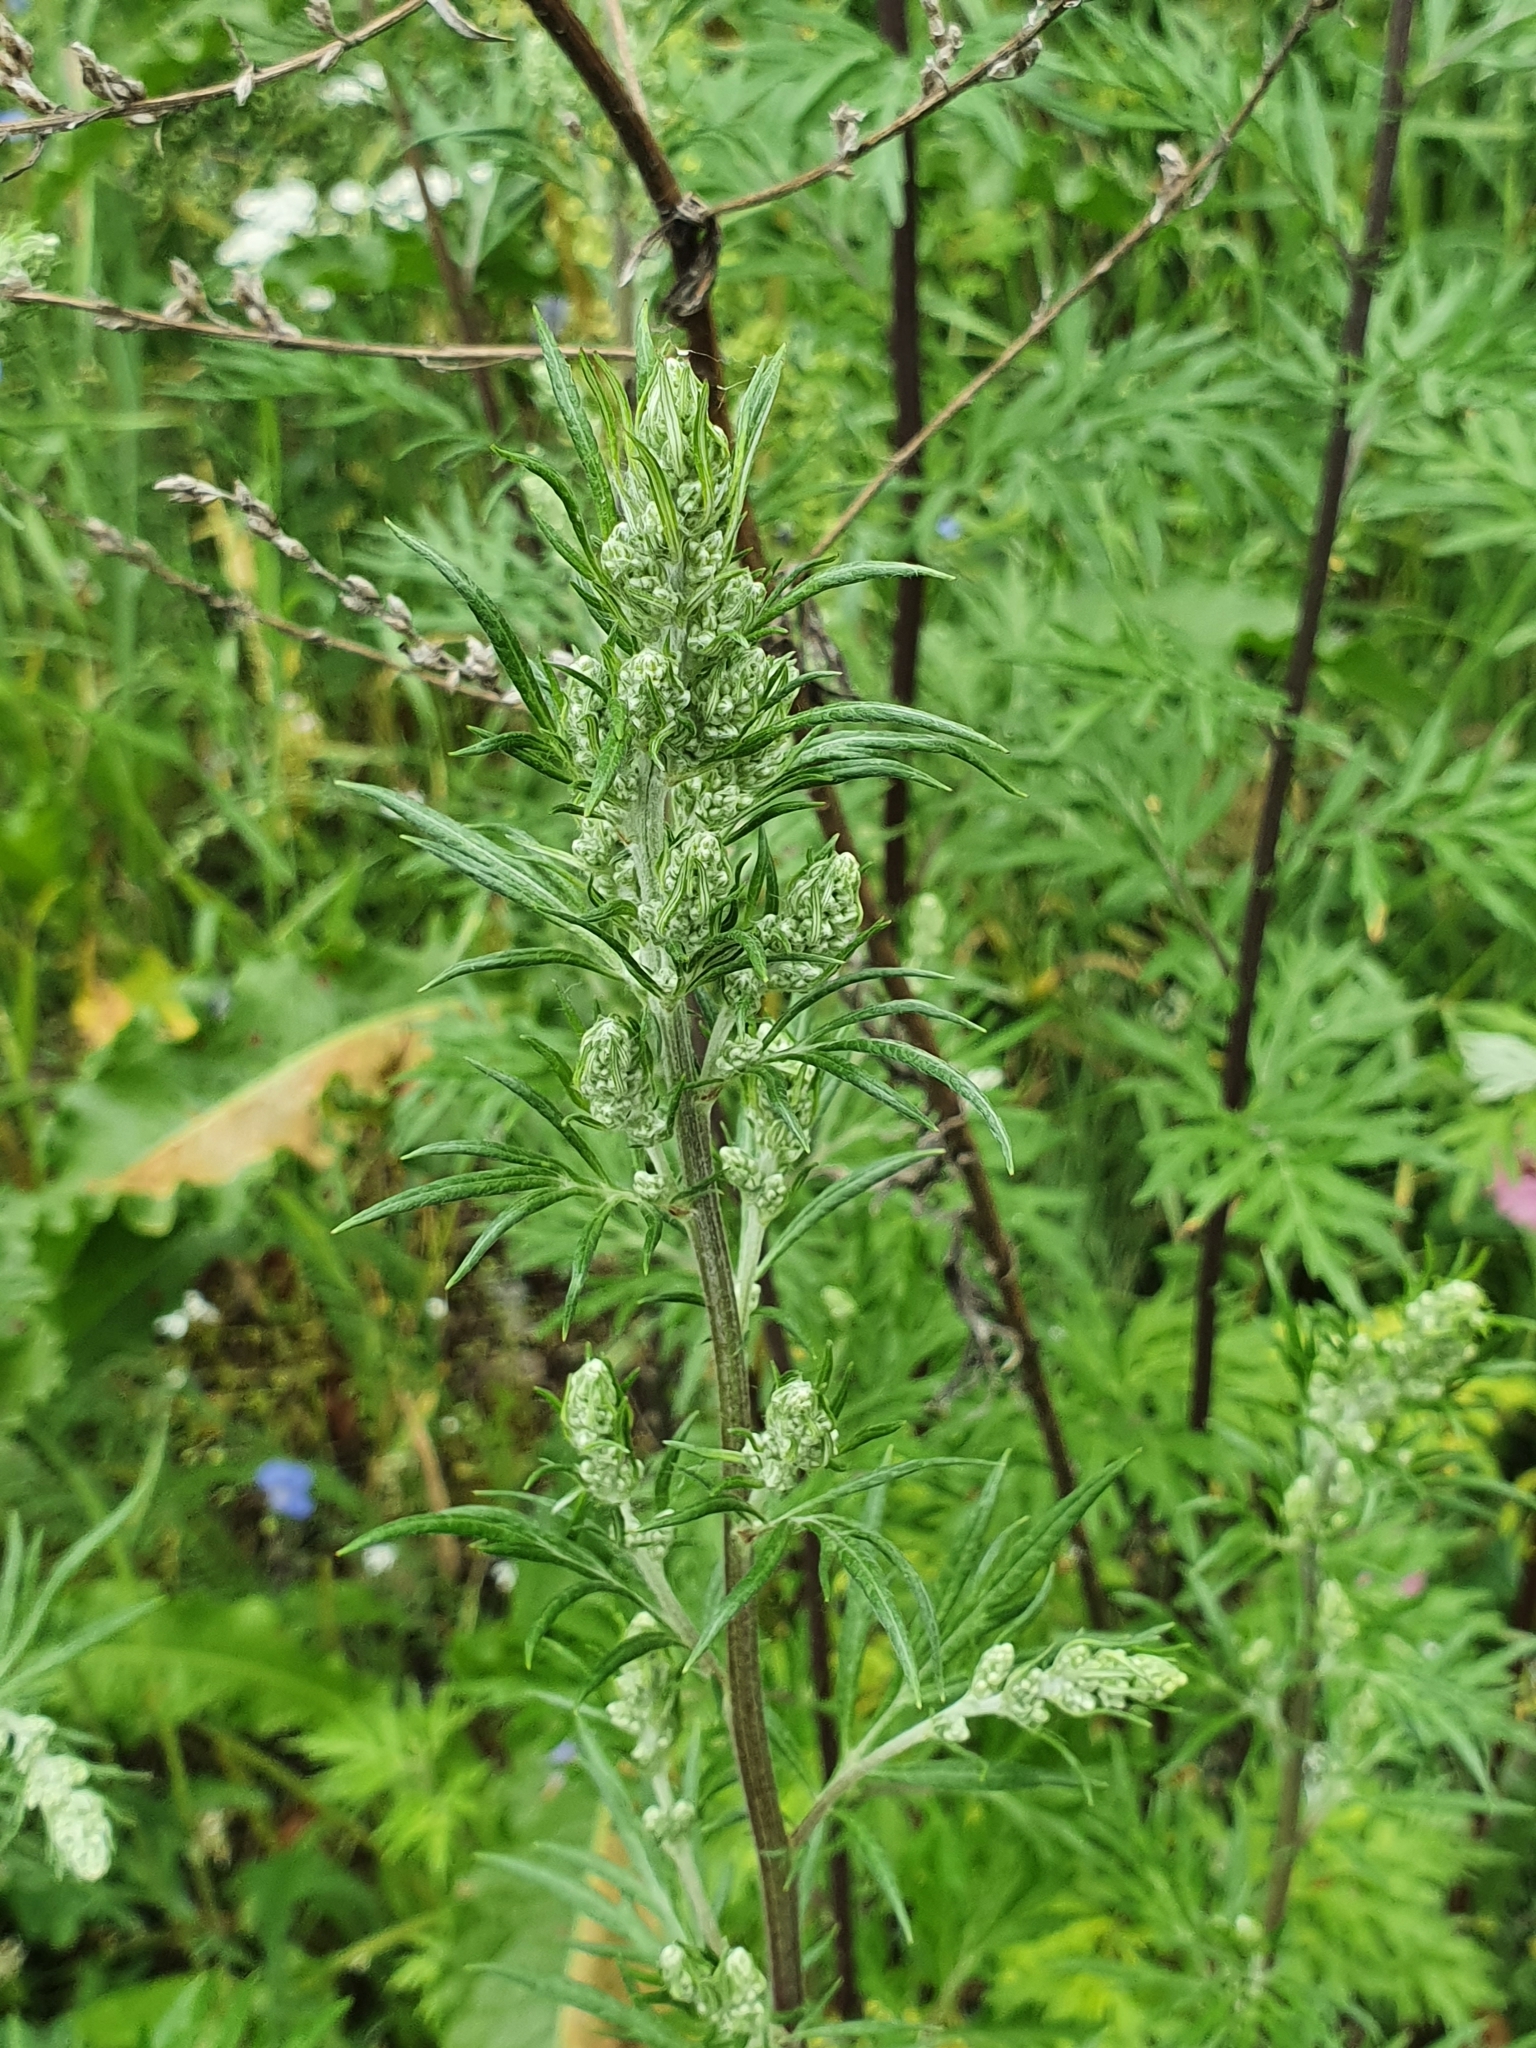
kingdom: Plantae
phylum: Tracheophyta
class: Magnoliopsida
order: Asterales
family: Asteraceae
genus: Artemisia
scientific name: Artemisia vulgaris
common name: Mugwort
